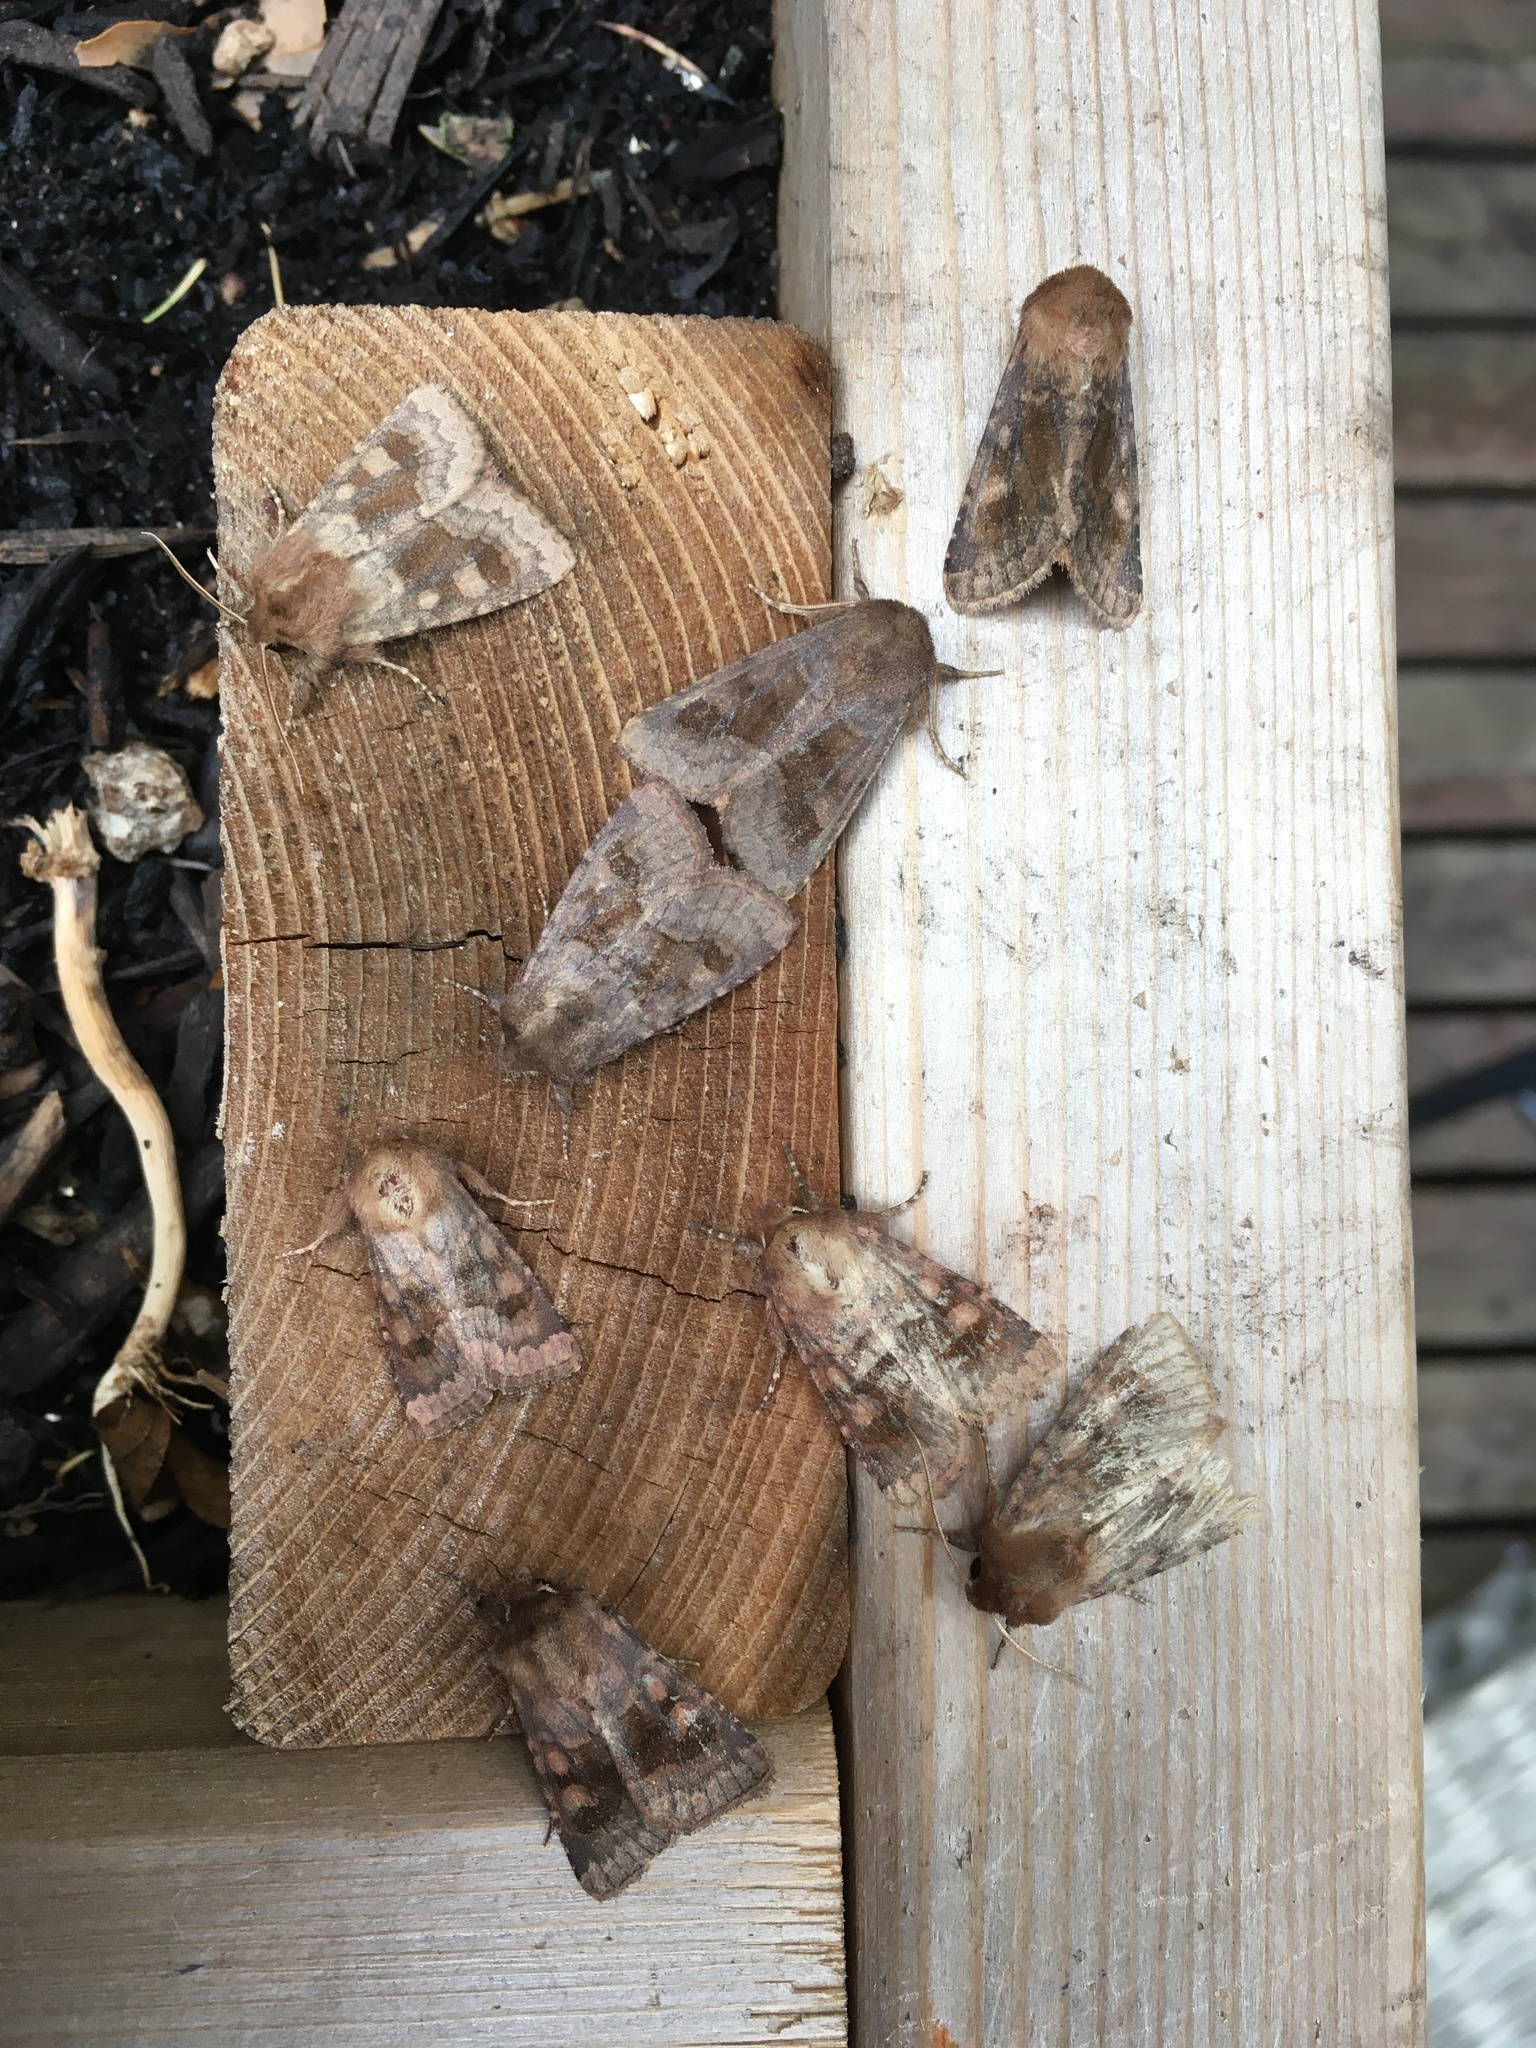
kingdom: Animalia
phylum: Arthropoda
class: Insecta
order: Lepidoptera
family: Noctuidae
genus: Nephelodes
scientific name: Nephelodes minians
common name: Bronzed cutworm
